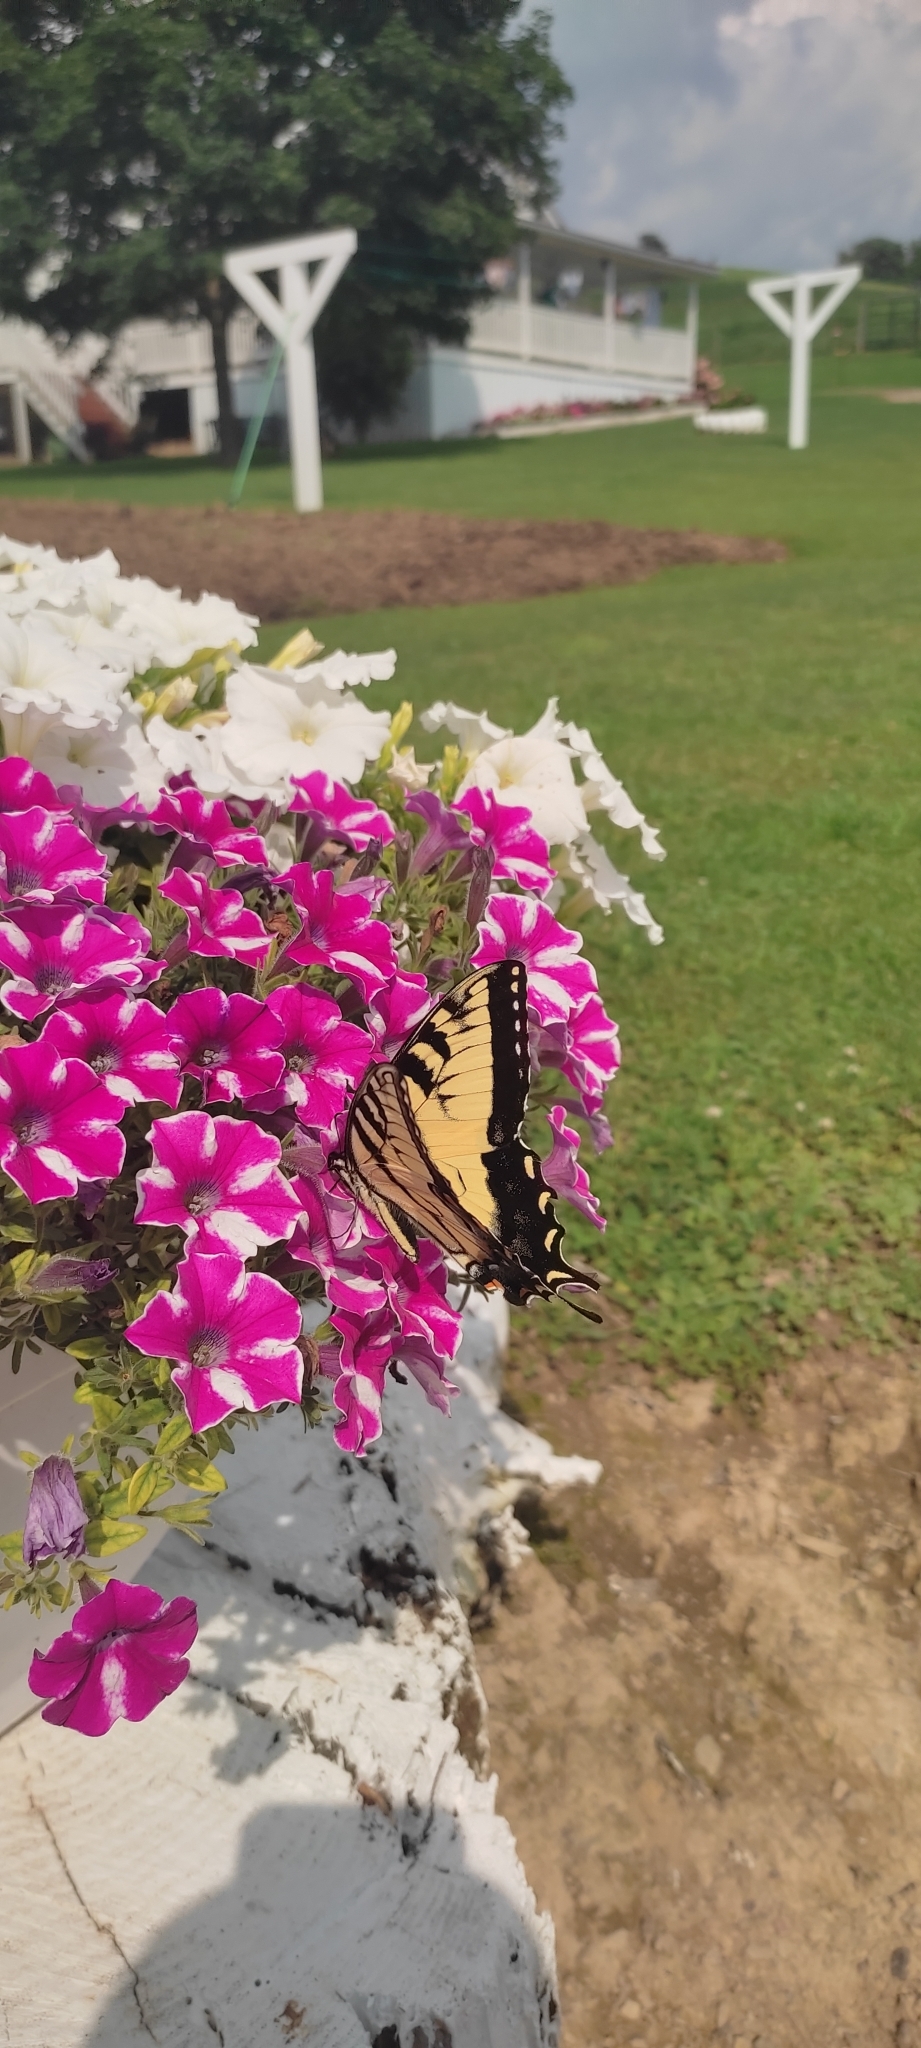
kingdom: Animalia
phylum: Arthropoda
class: Insecta
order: Lepidoptera
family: Papilionidae
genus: Papilio
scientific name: Papilio glaucus
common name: Tiger swallowtail
